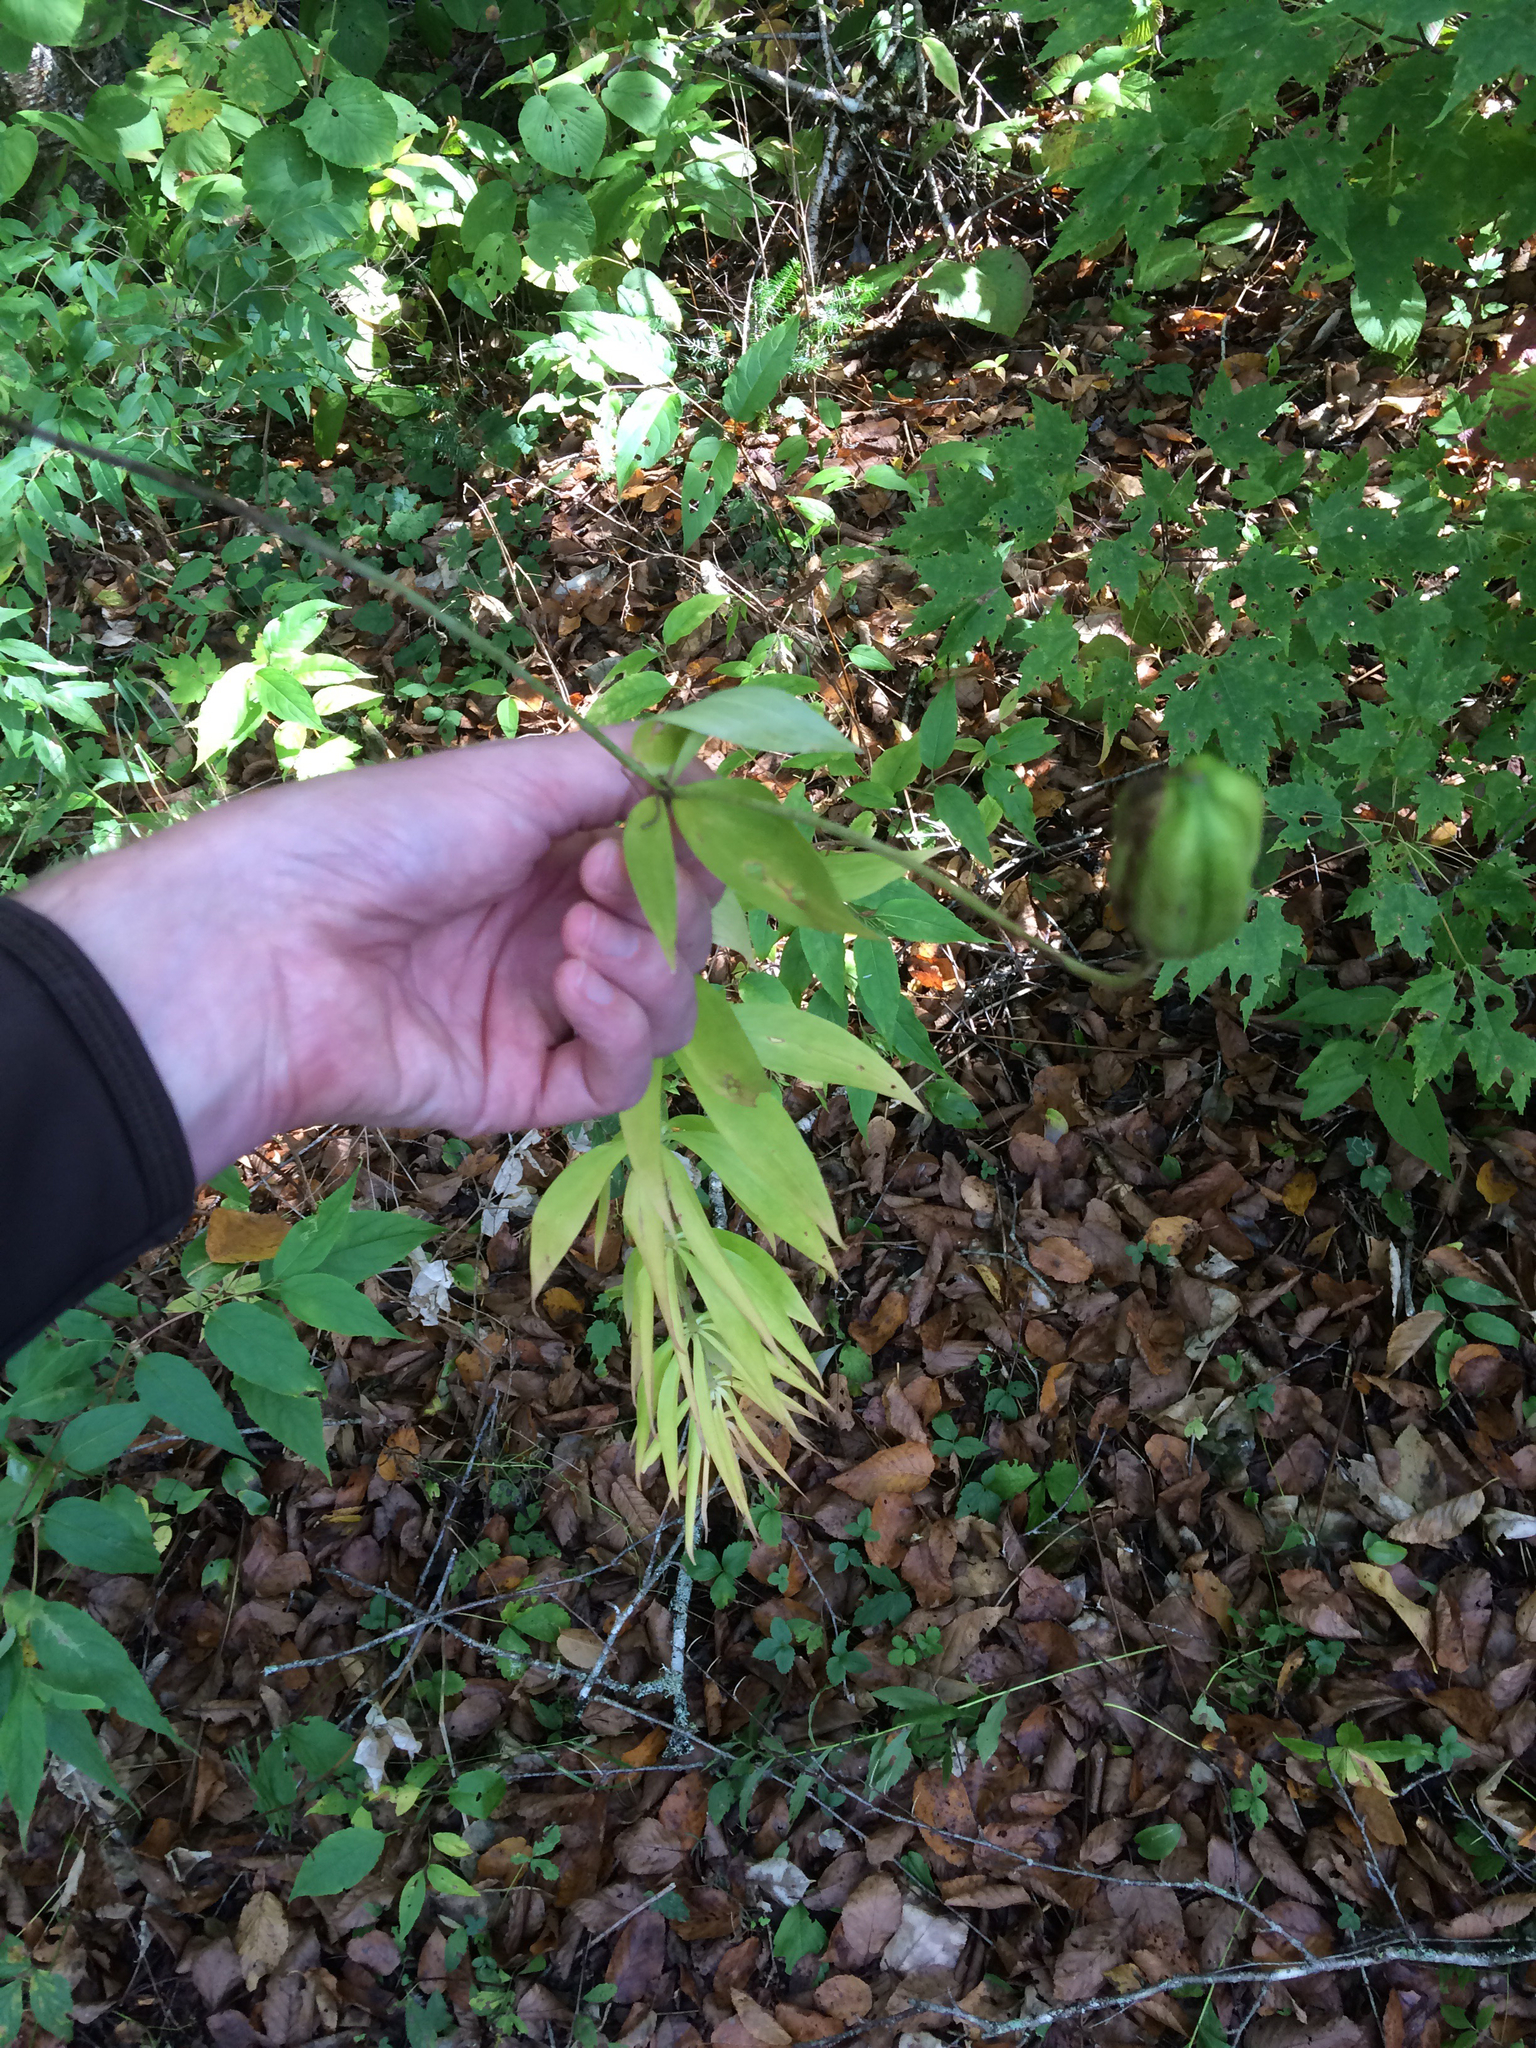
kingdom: Plantae
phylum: Tracheophyta
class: Liliopsida
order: Liliales
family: Liliaceae
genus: Lilium
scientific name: Lilium
